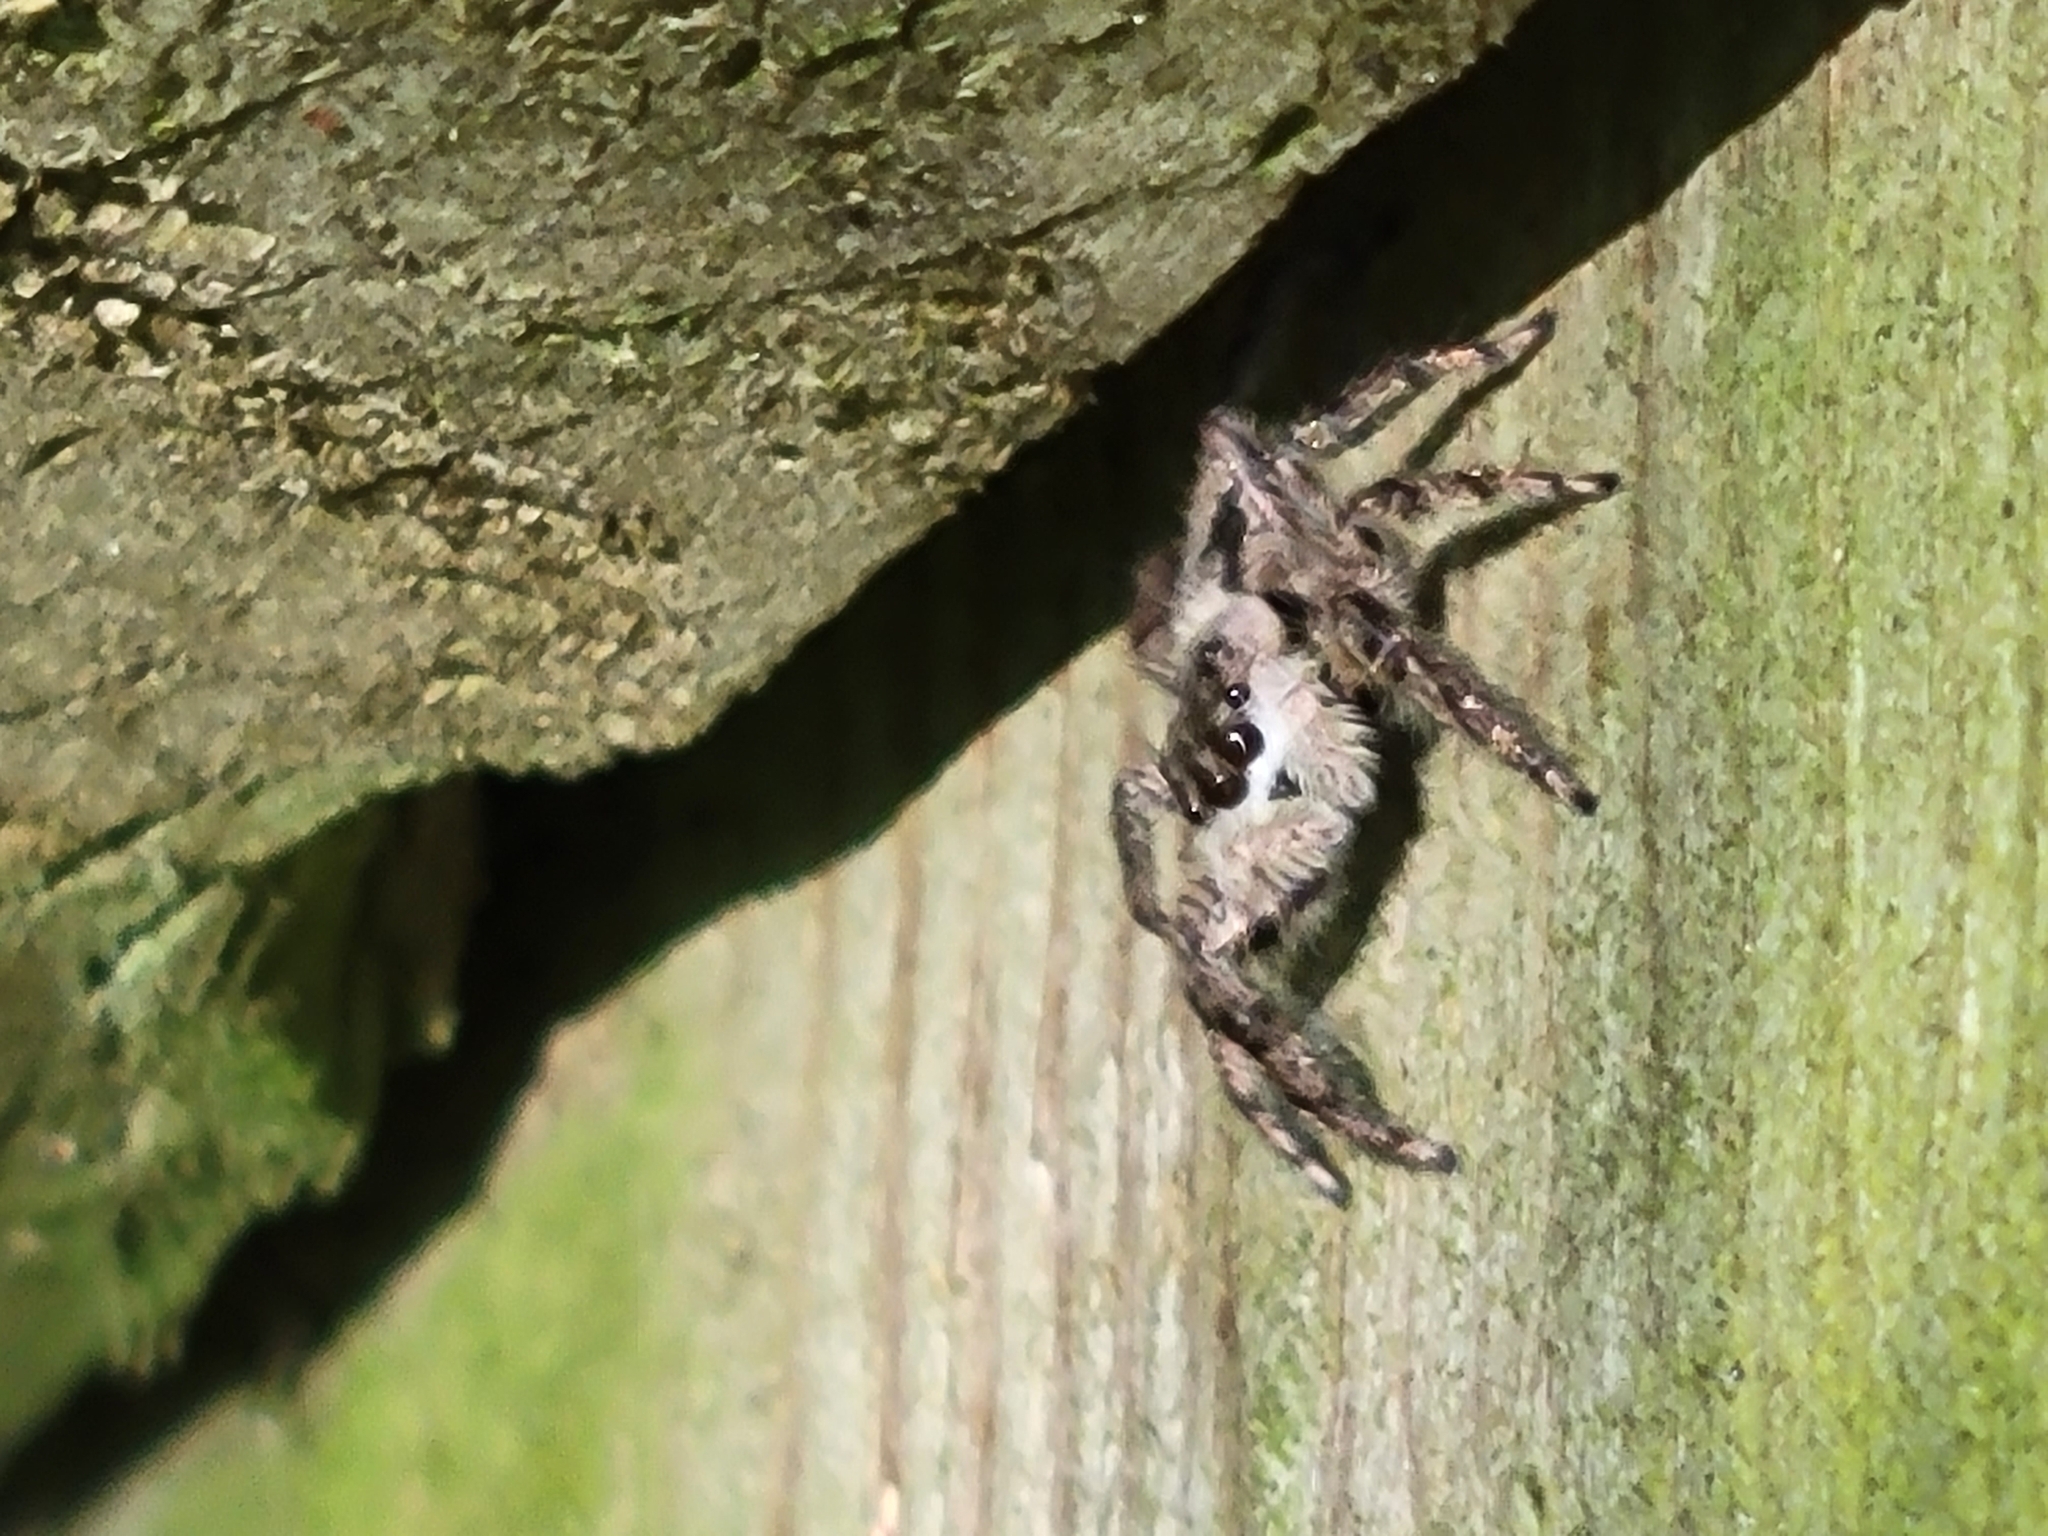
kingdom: Animalia
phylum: Arthropoda
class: Arachnida
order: Araneae
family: Salticidae
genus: Platycryptus
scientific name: Platycryptus undatus
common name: Tan jumping spider
